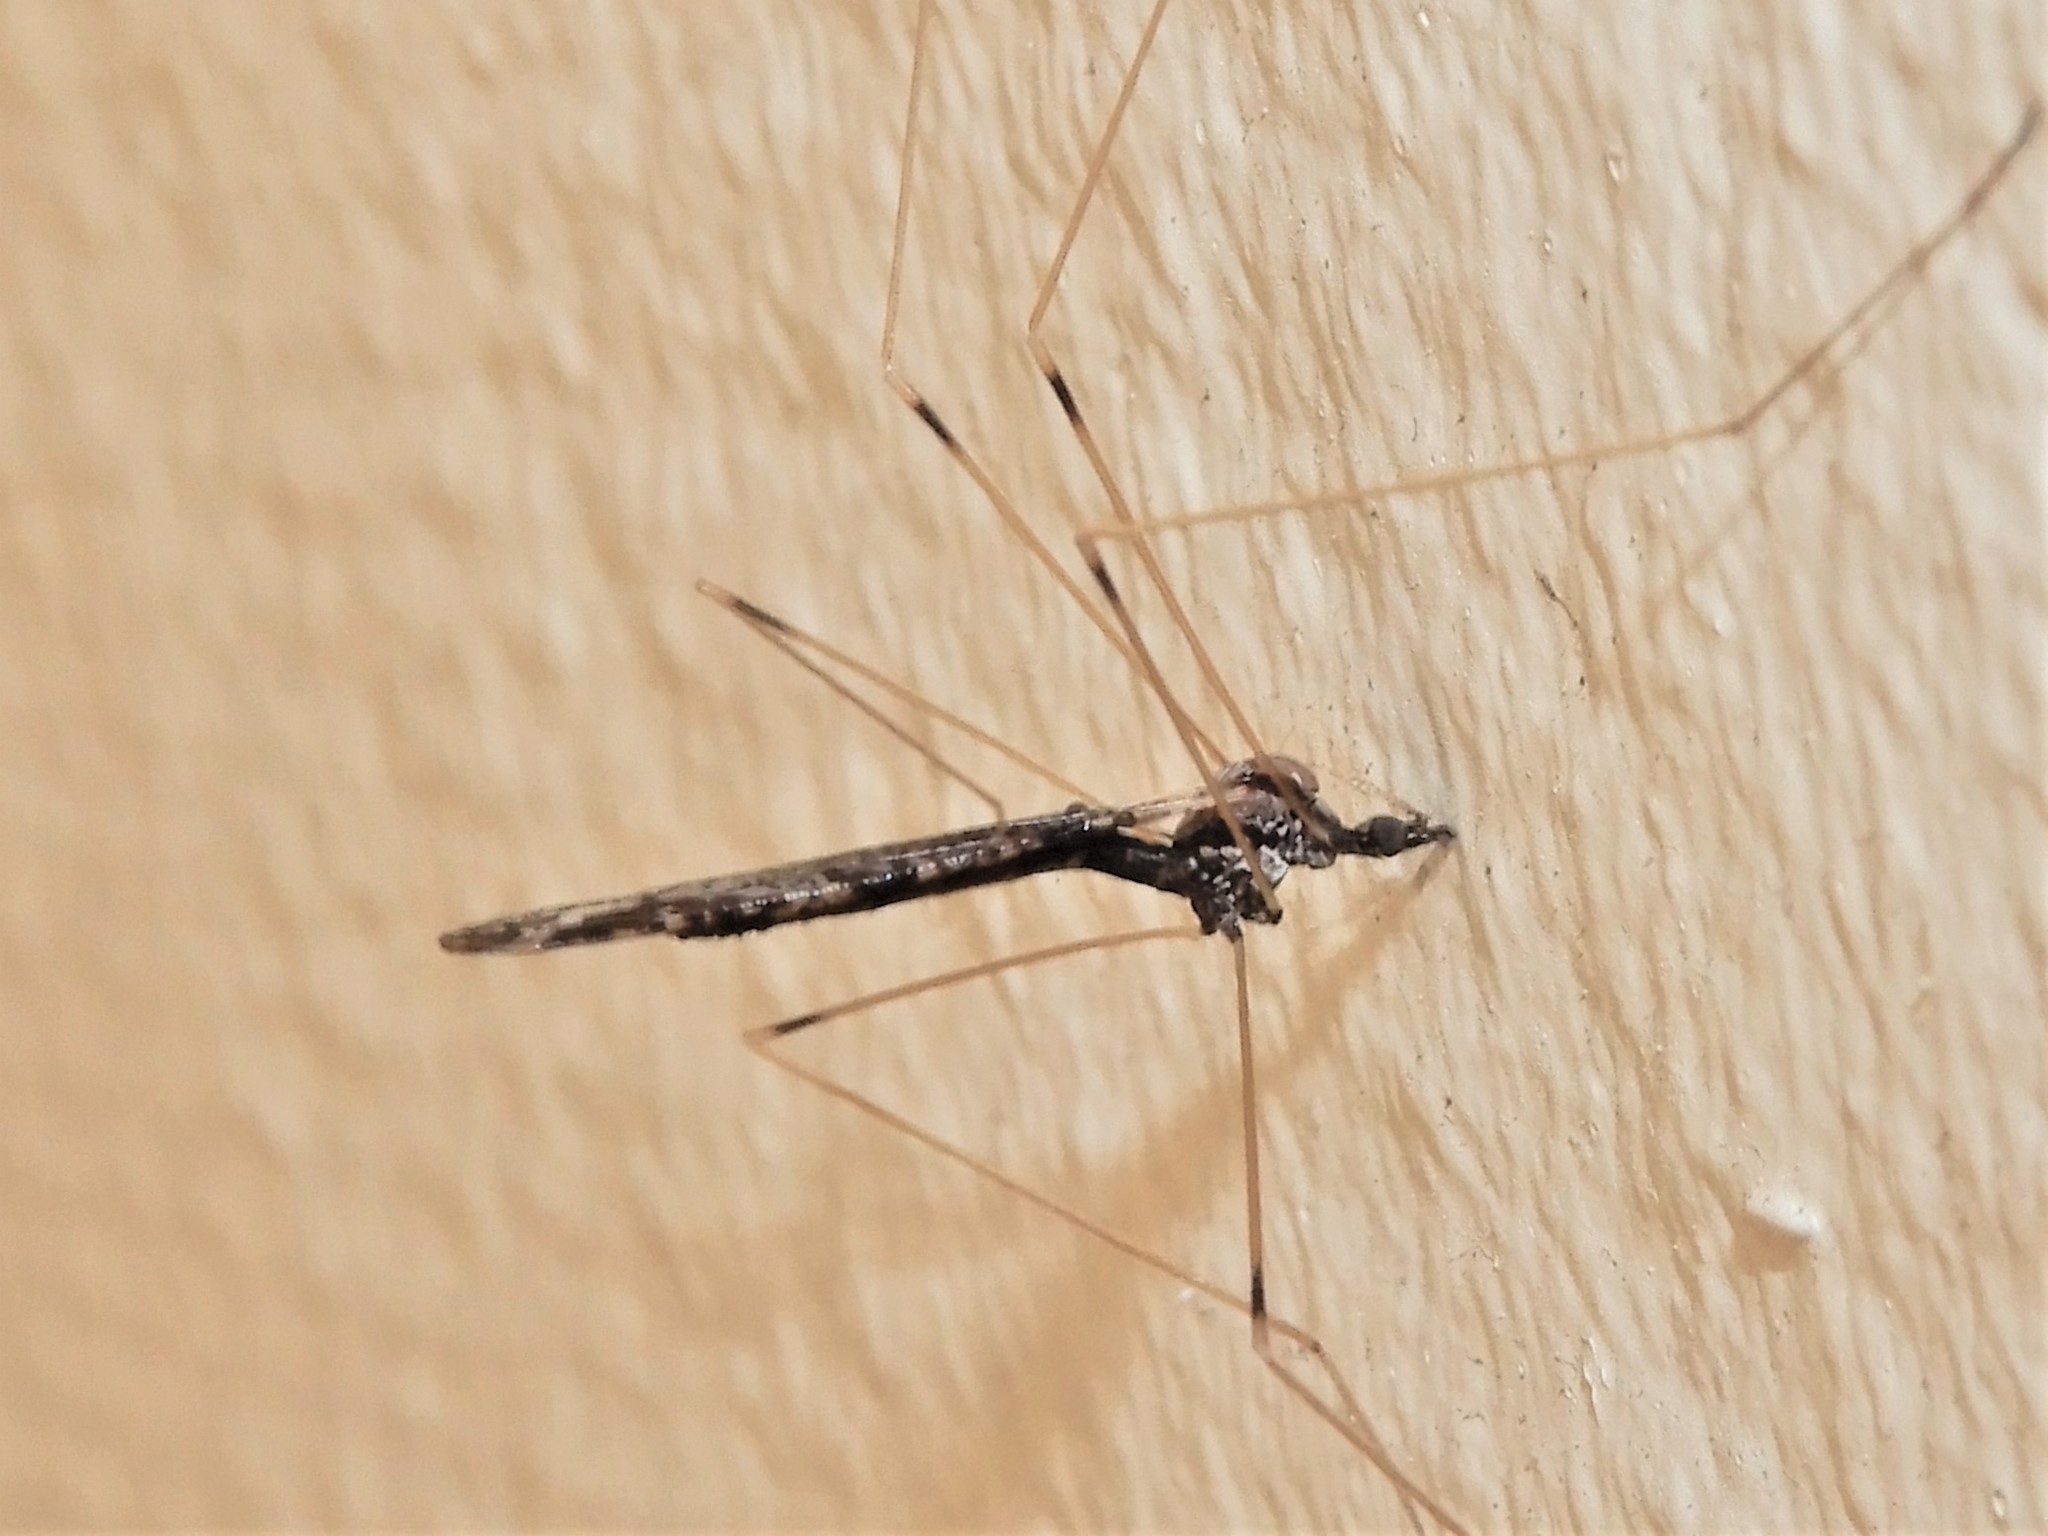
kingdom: Animalia
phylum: Arthropoda
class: Insecta
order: Diptera
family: Limoniidae
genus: Discobola
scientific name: Discobola striata
